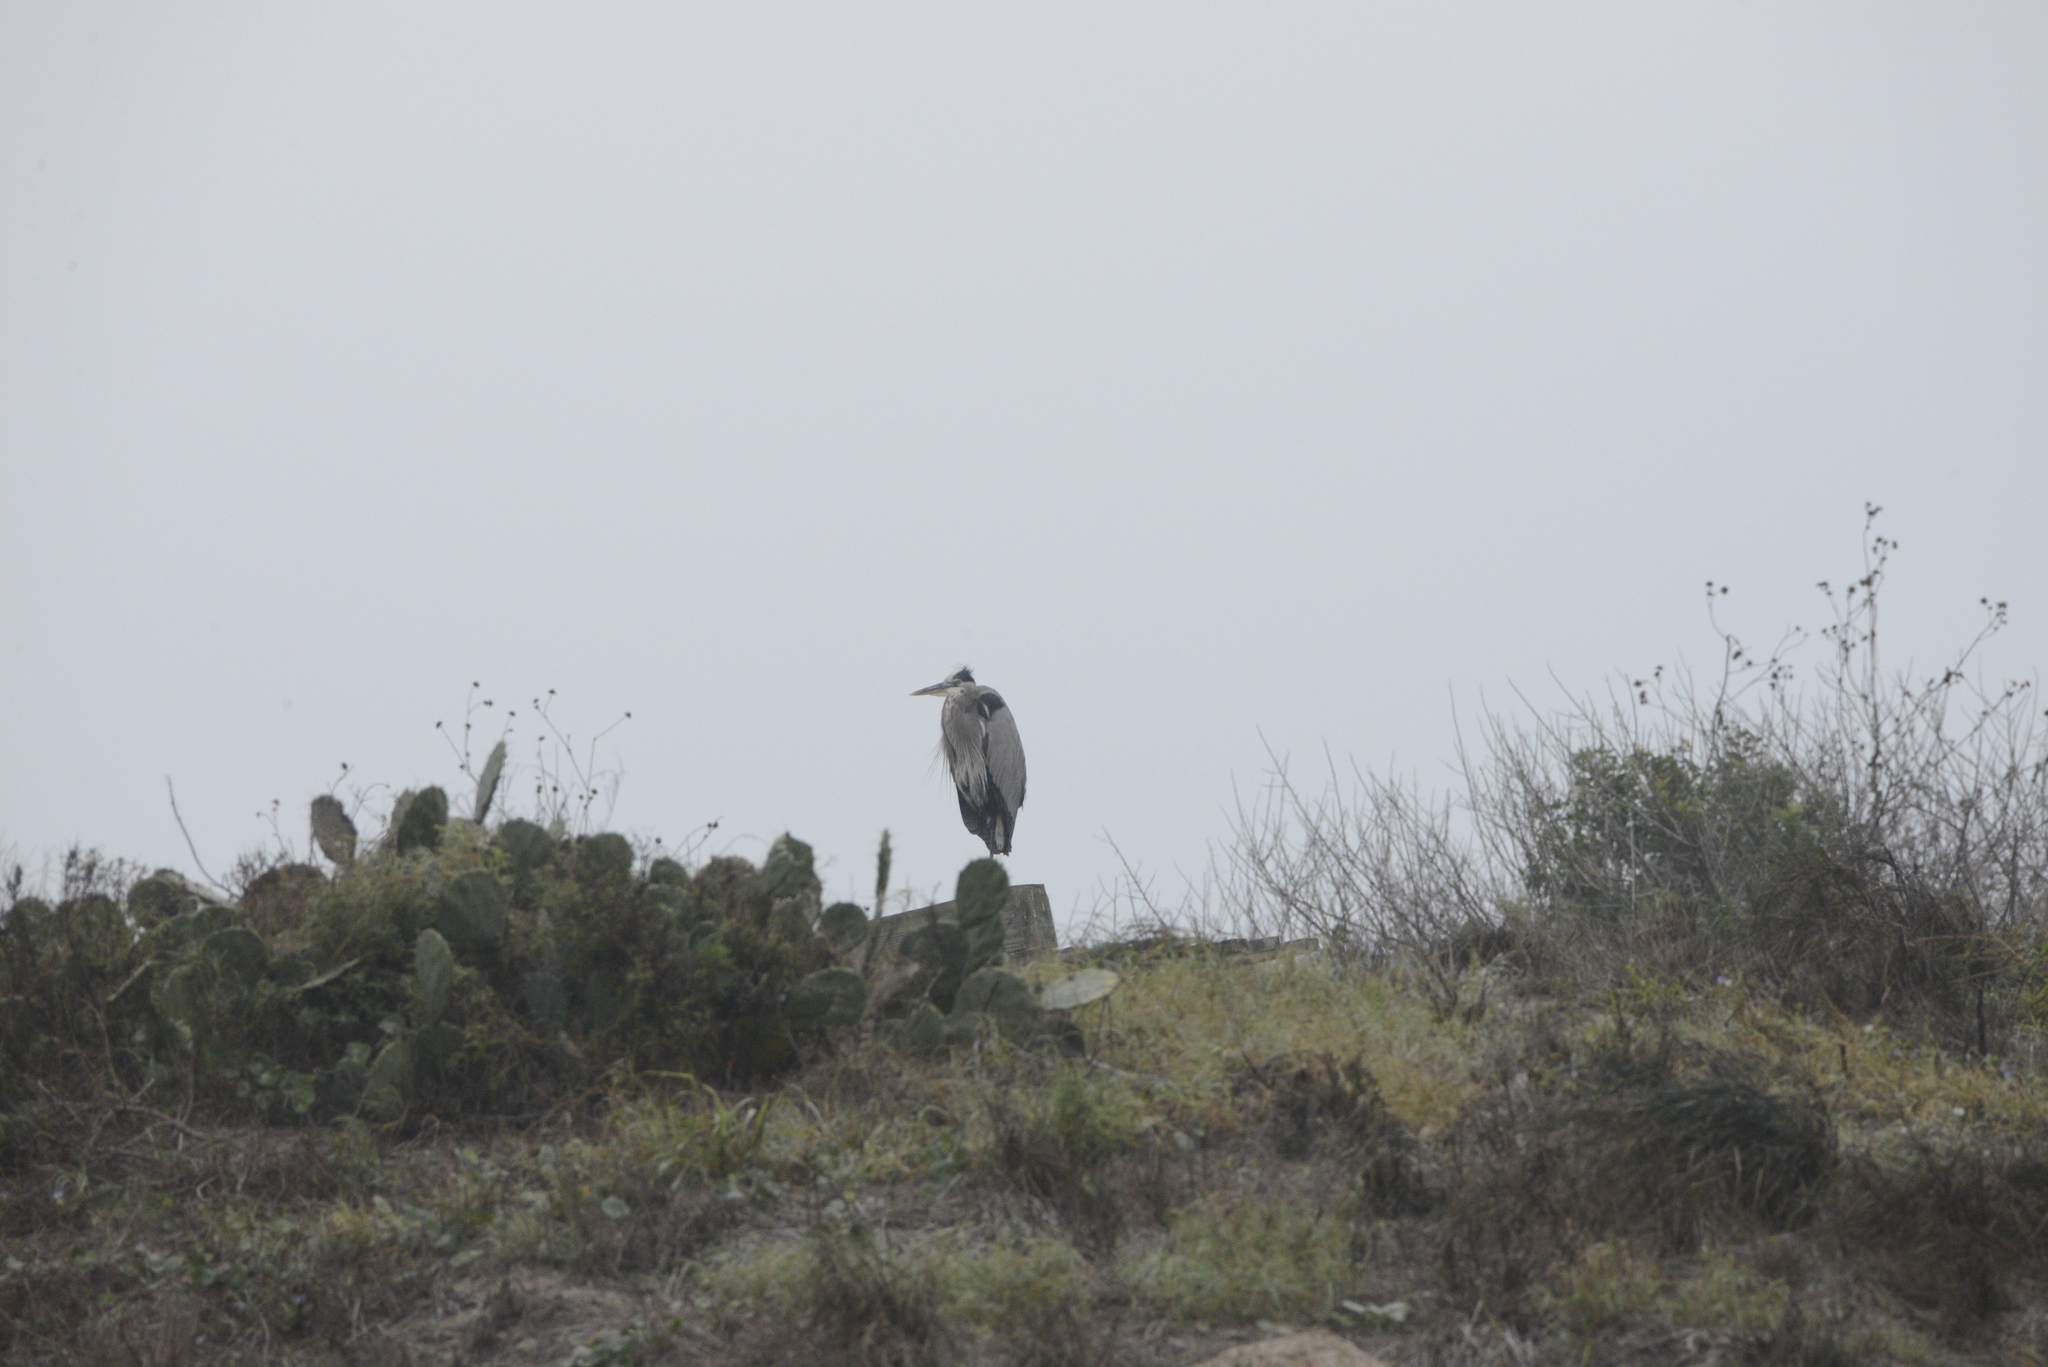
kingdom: Animalia
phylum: Chordata
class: Aves
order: Pelecaniformes
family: Ardeidae
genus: Ardea
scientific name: Ardea herodias
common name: Great blue heron
